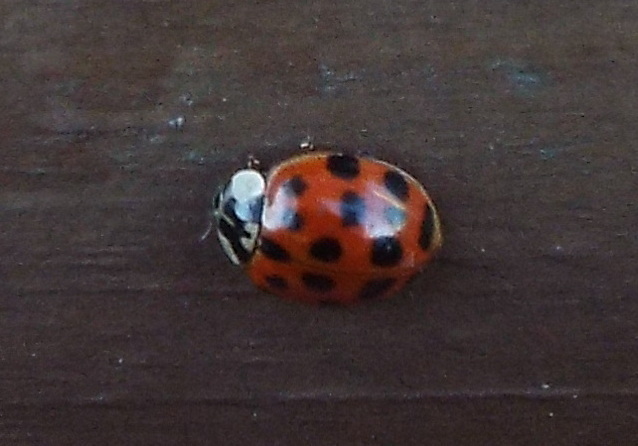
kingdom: Animalia
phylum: Arthropoda
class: Insecta
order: Coleoptera
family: Coccinellidae
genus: Harmonia
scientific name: Harmonia axyridis
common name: Harlequin ladybird
